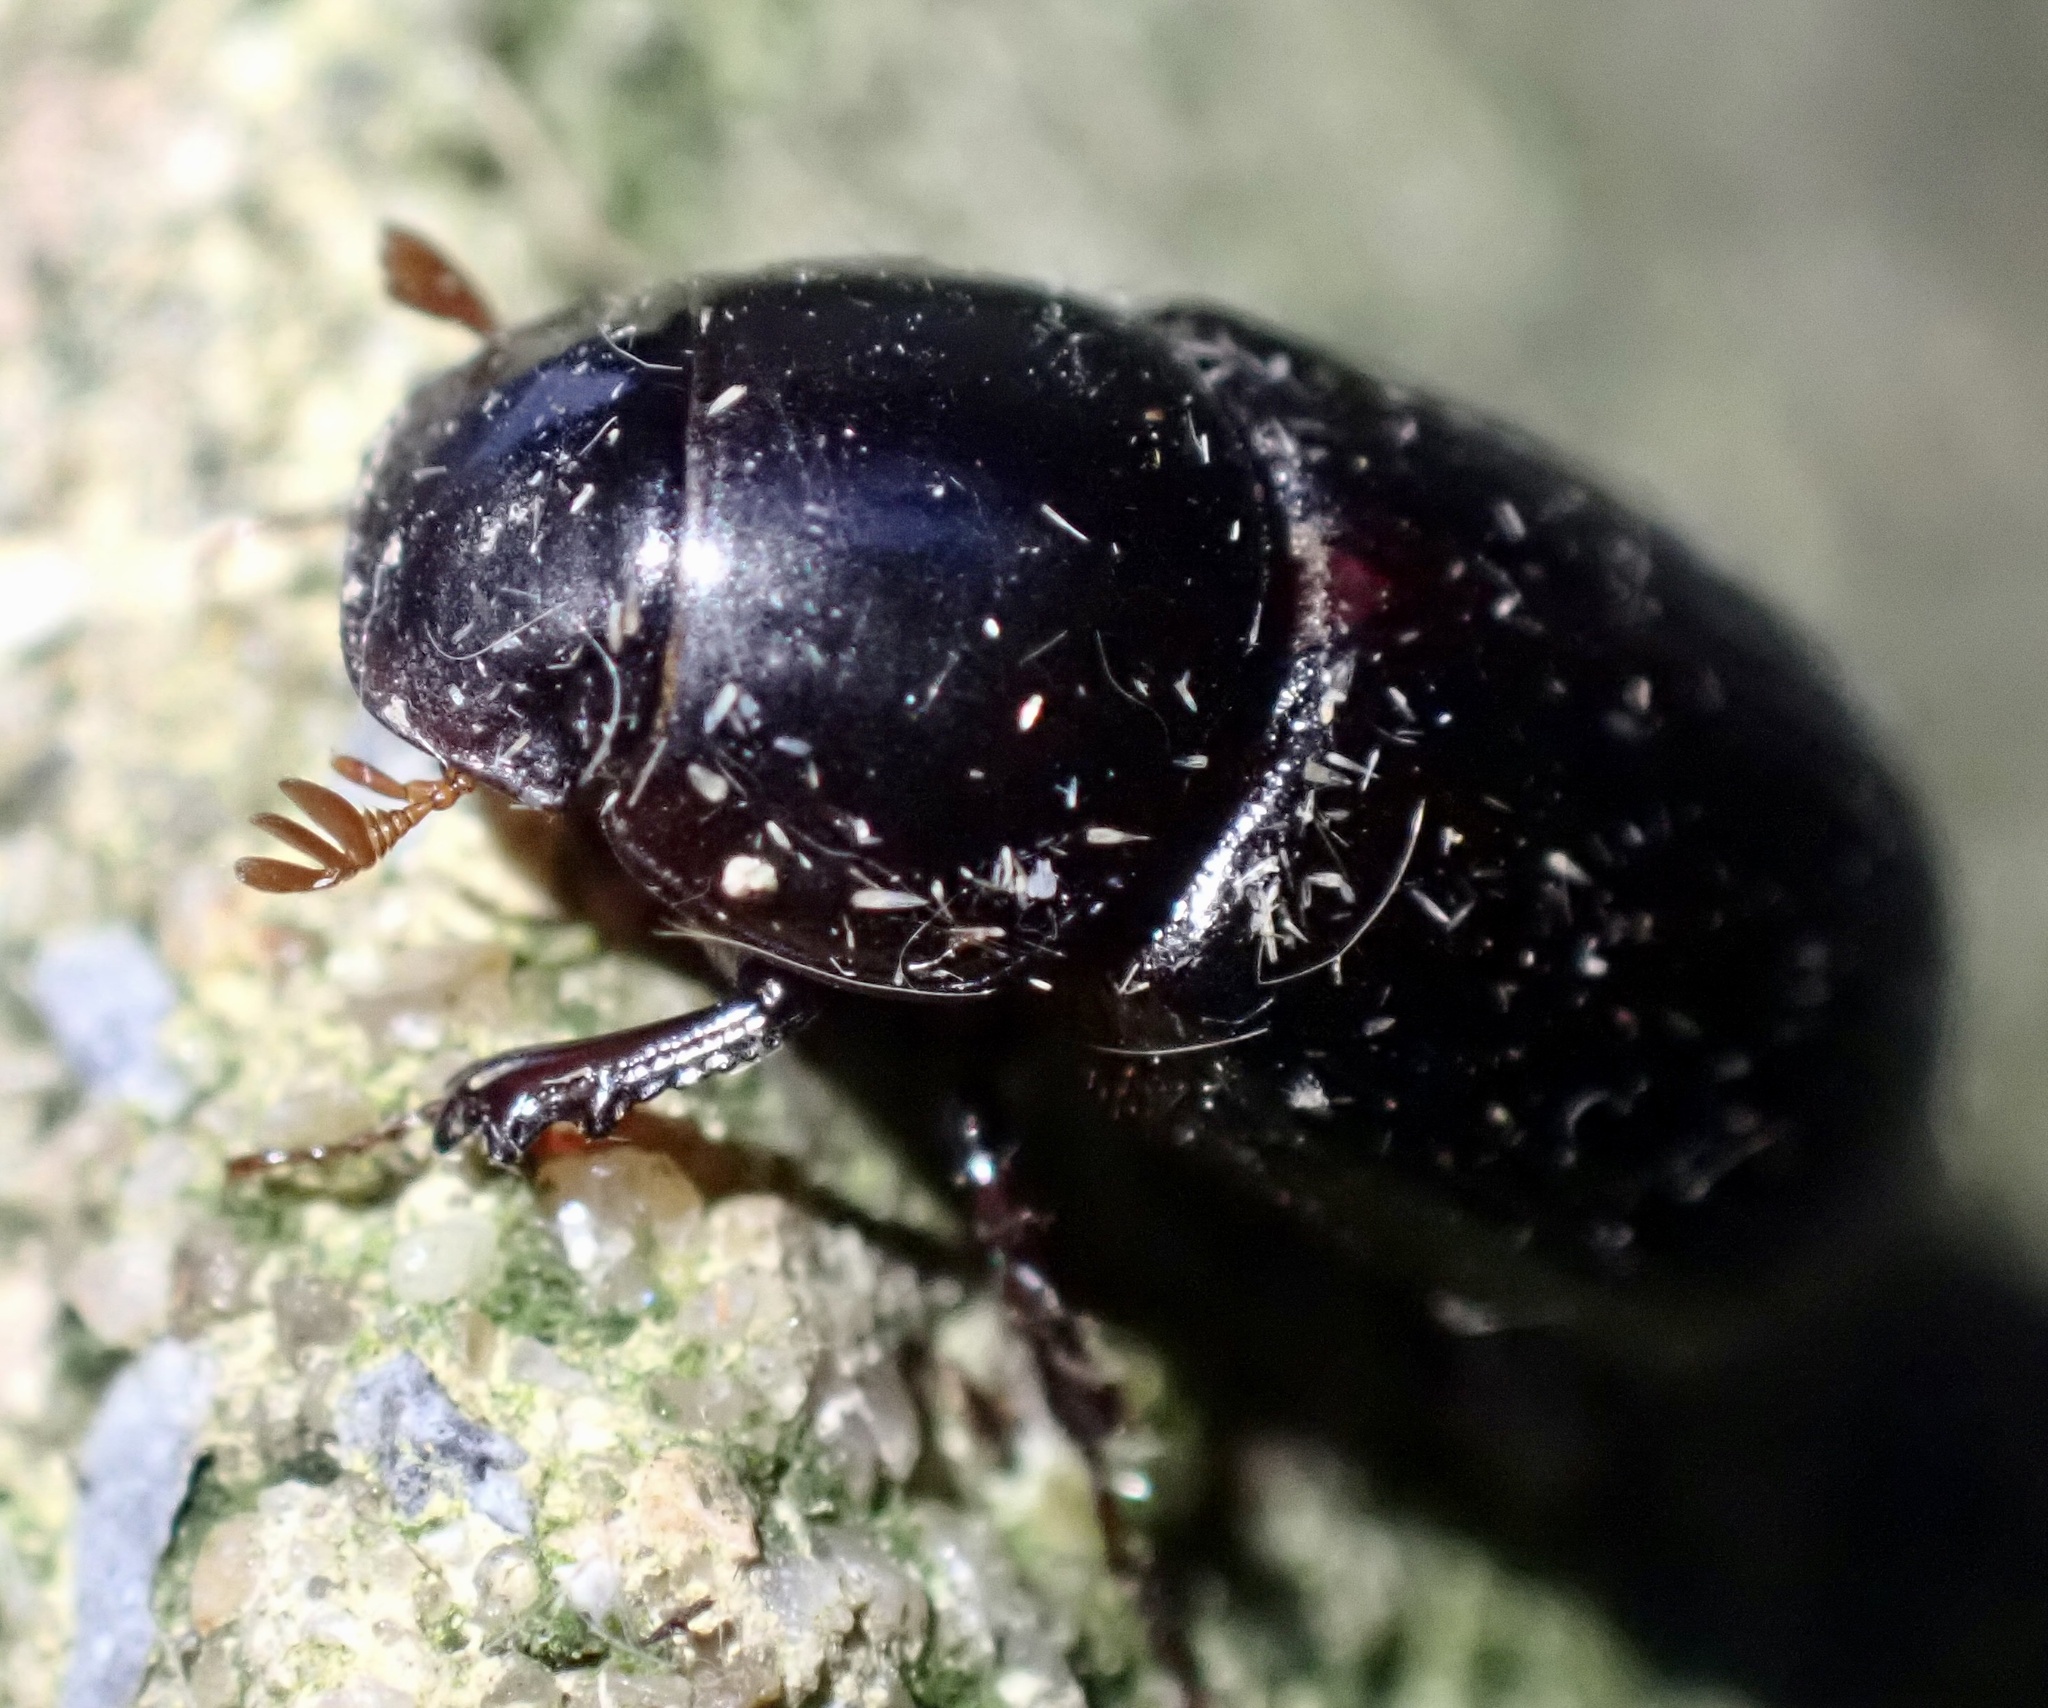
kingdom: Animalia
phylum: Arthropoda
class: Insecta
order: Coleoptera
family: Scarabaeidae
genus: Acrossus
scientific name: Acrossus rufipes
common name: Night-flying dung beetle
